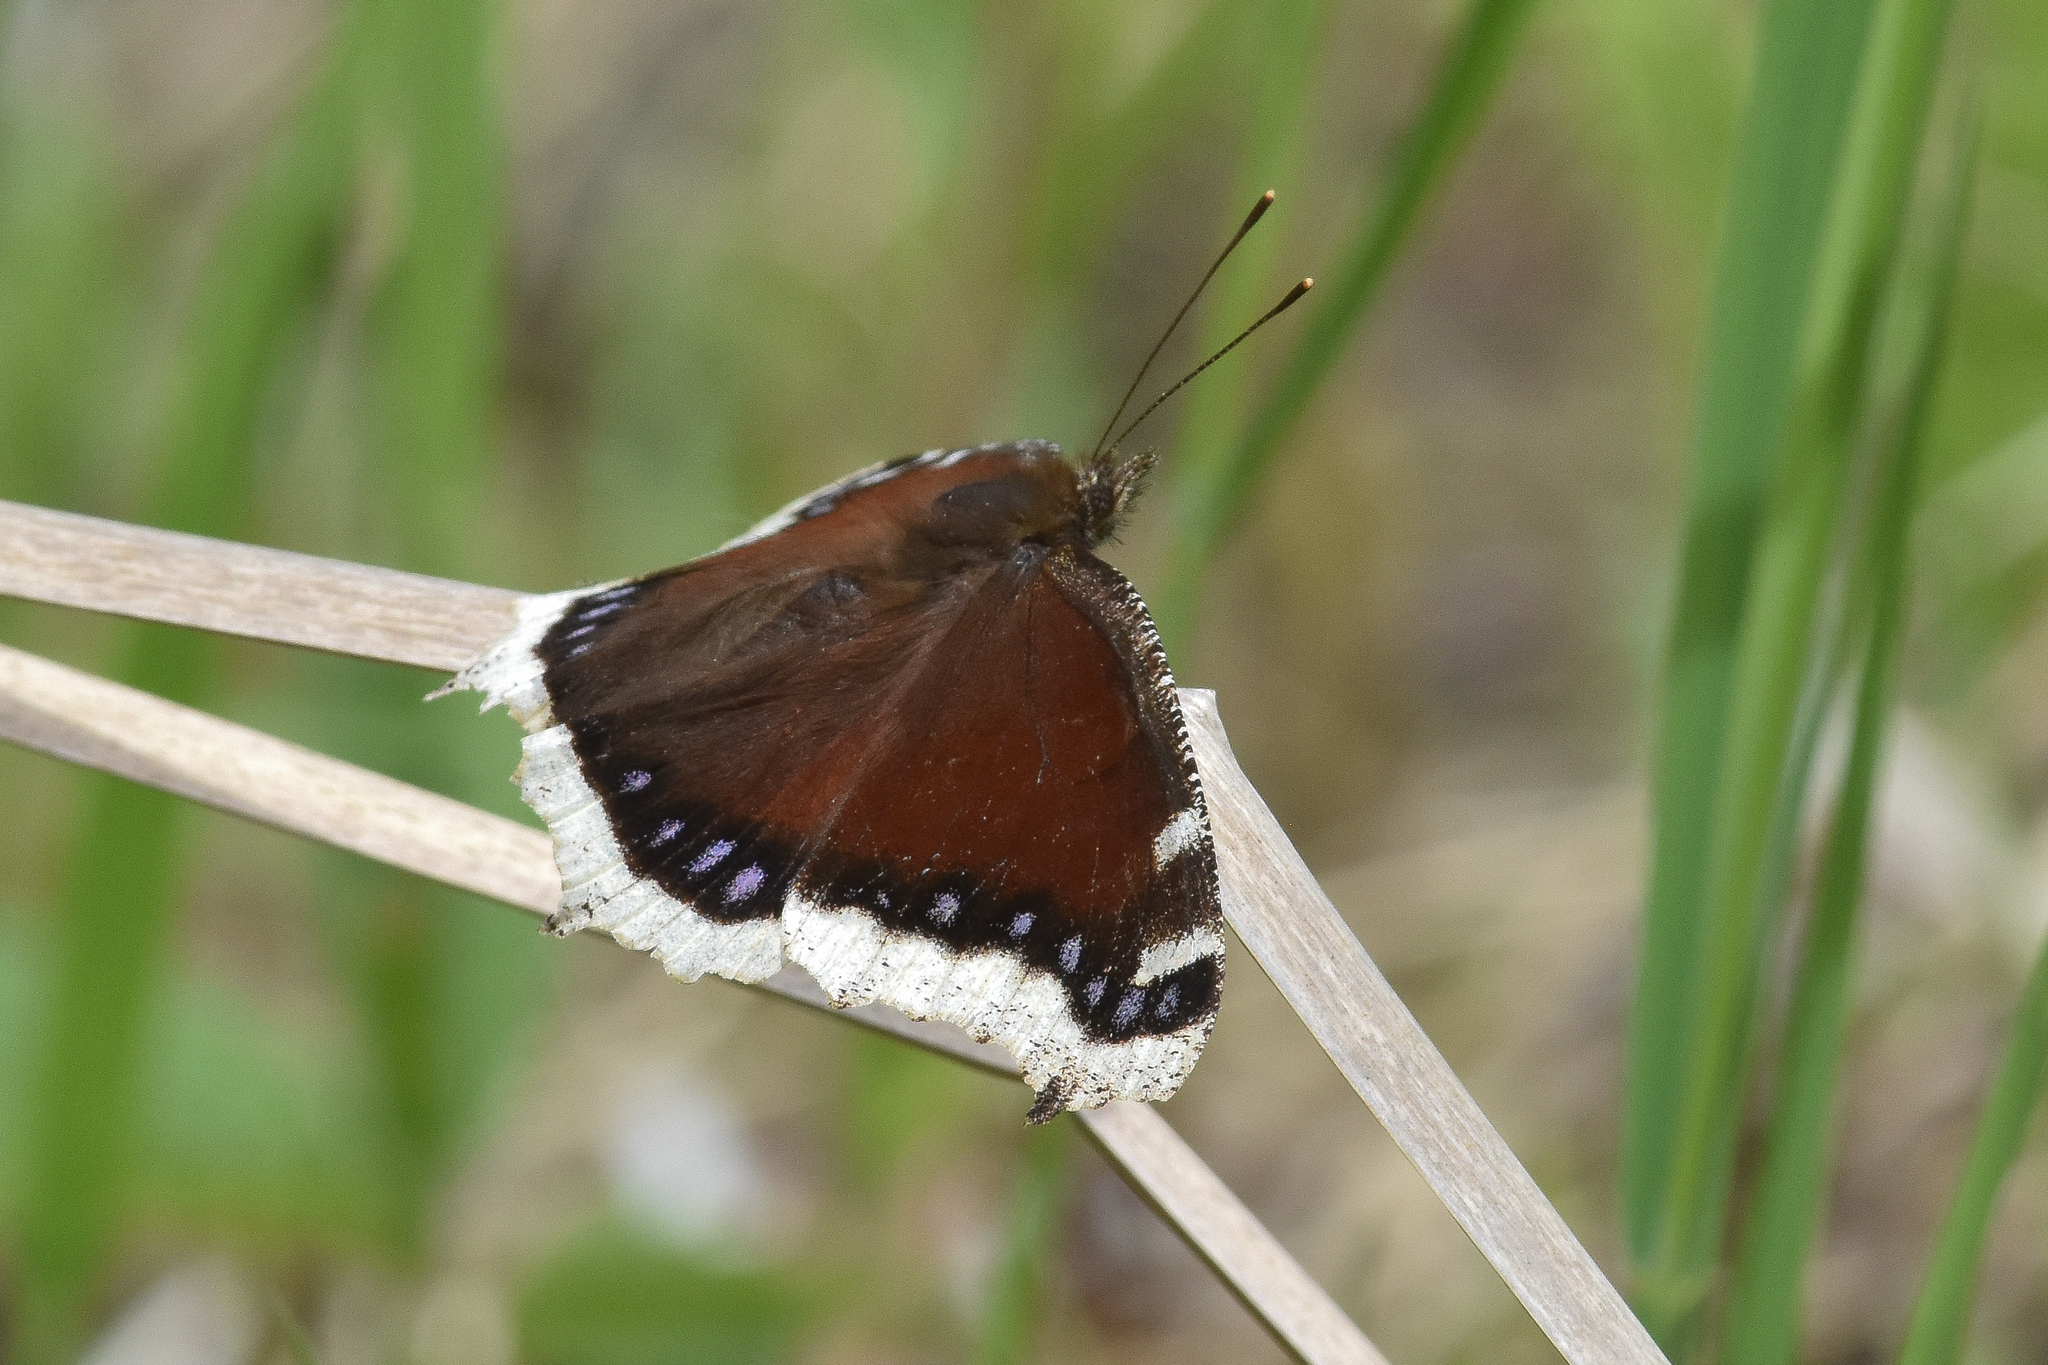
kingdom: Animalia
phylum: Arthropoda
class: Insecta
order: Lepidoptera
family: Nymphalidae
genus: Nymphalis
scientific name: Nymphalis antiopa
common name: Camberwell beauty
